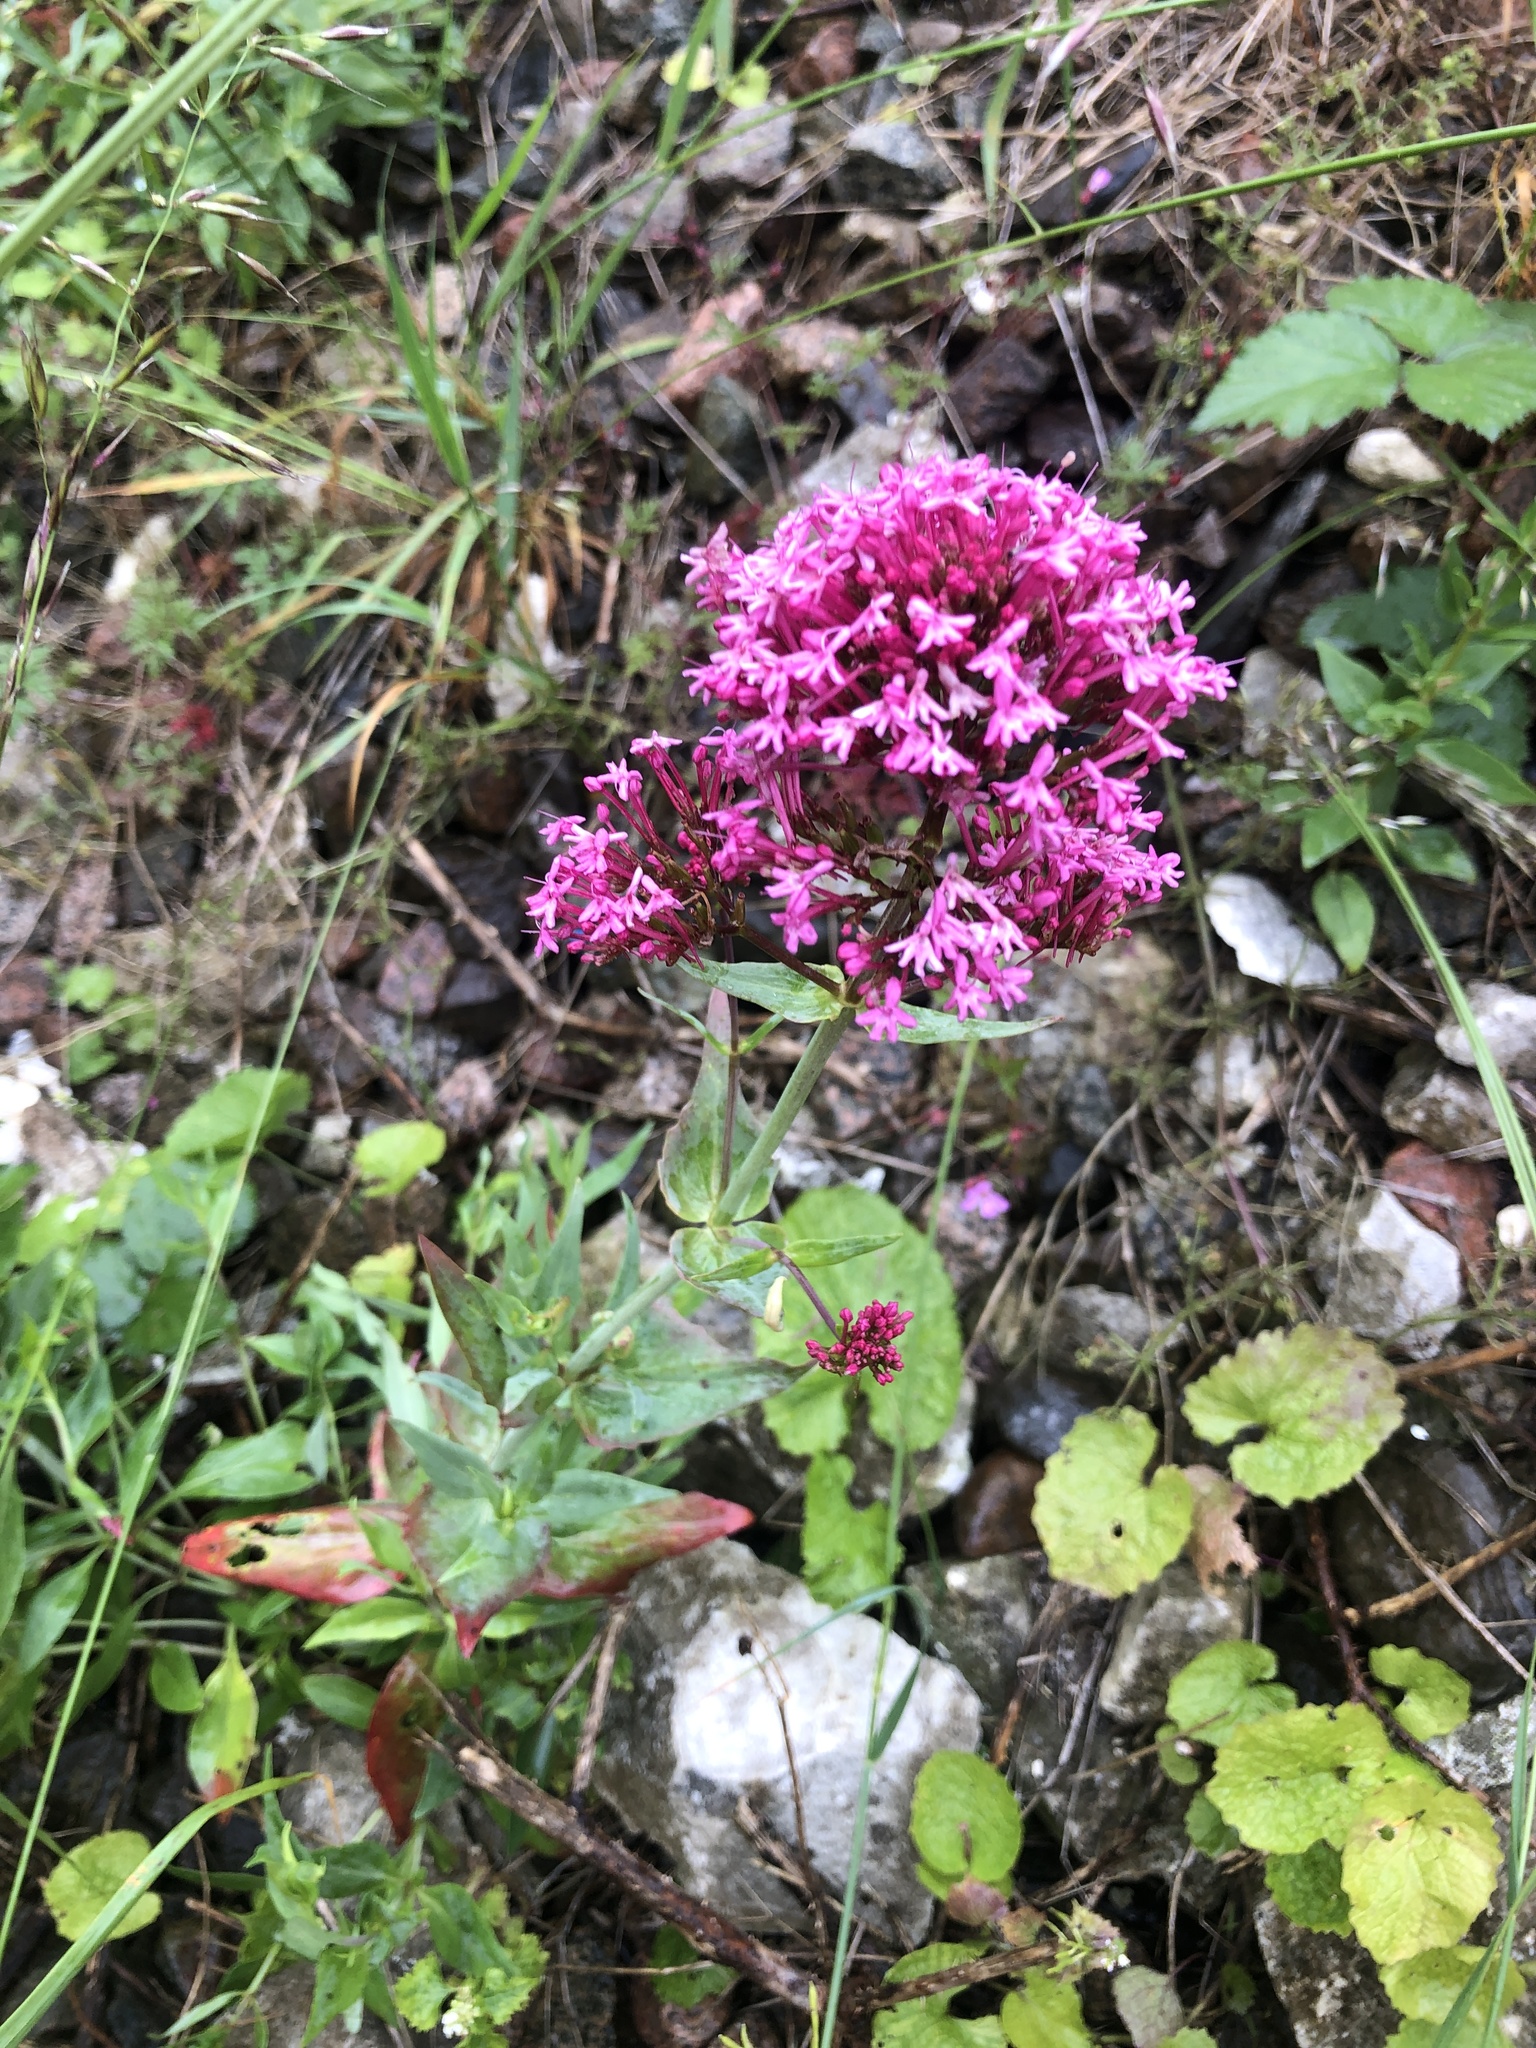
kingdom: Plantae
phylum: Tracheophyta
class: Magnoliopsida
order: Dipsacales
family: Caprifoliaceae
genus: Centranthus
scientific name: Centranthus ruber
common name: Red valerian
